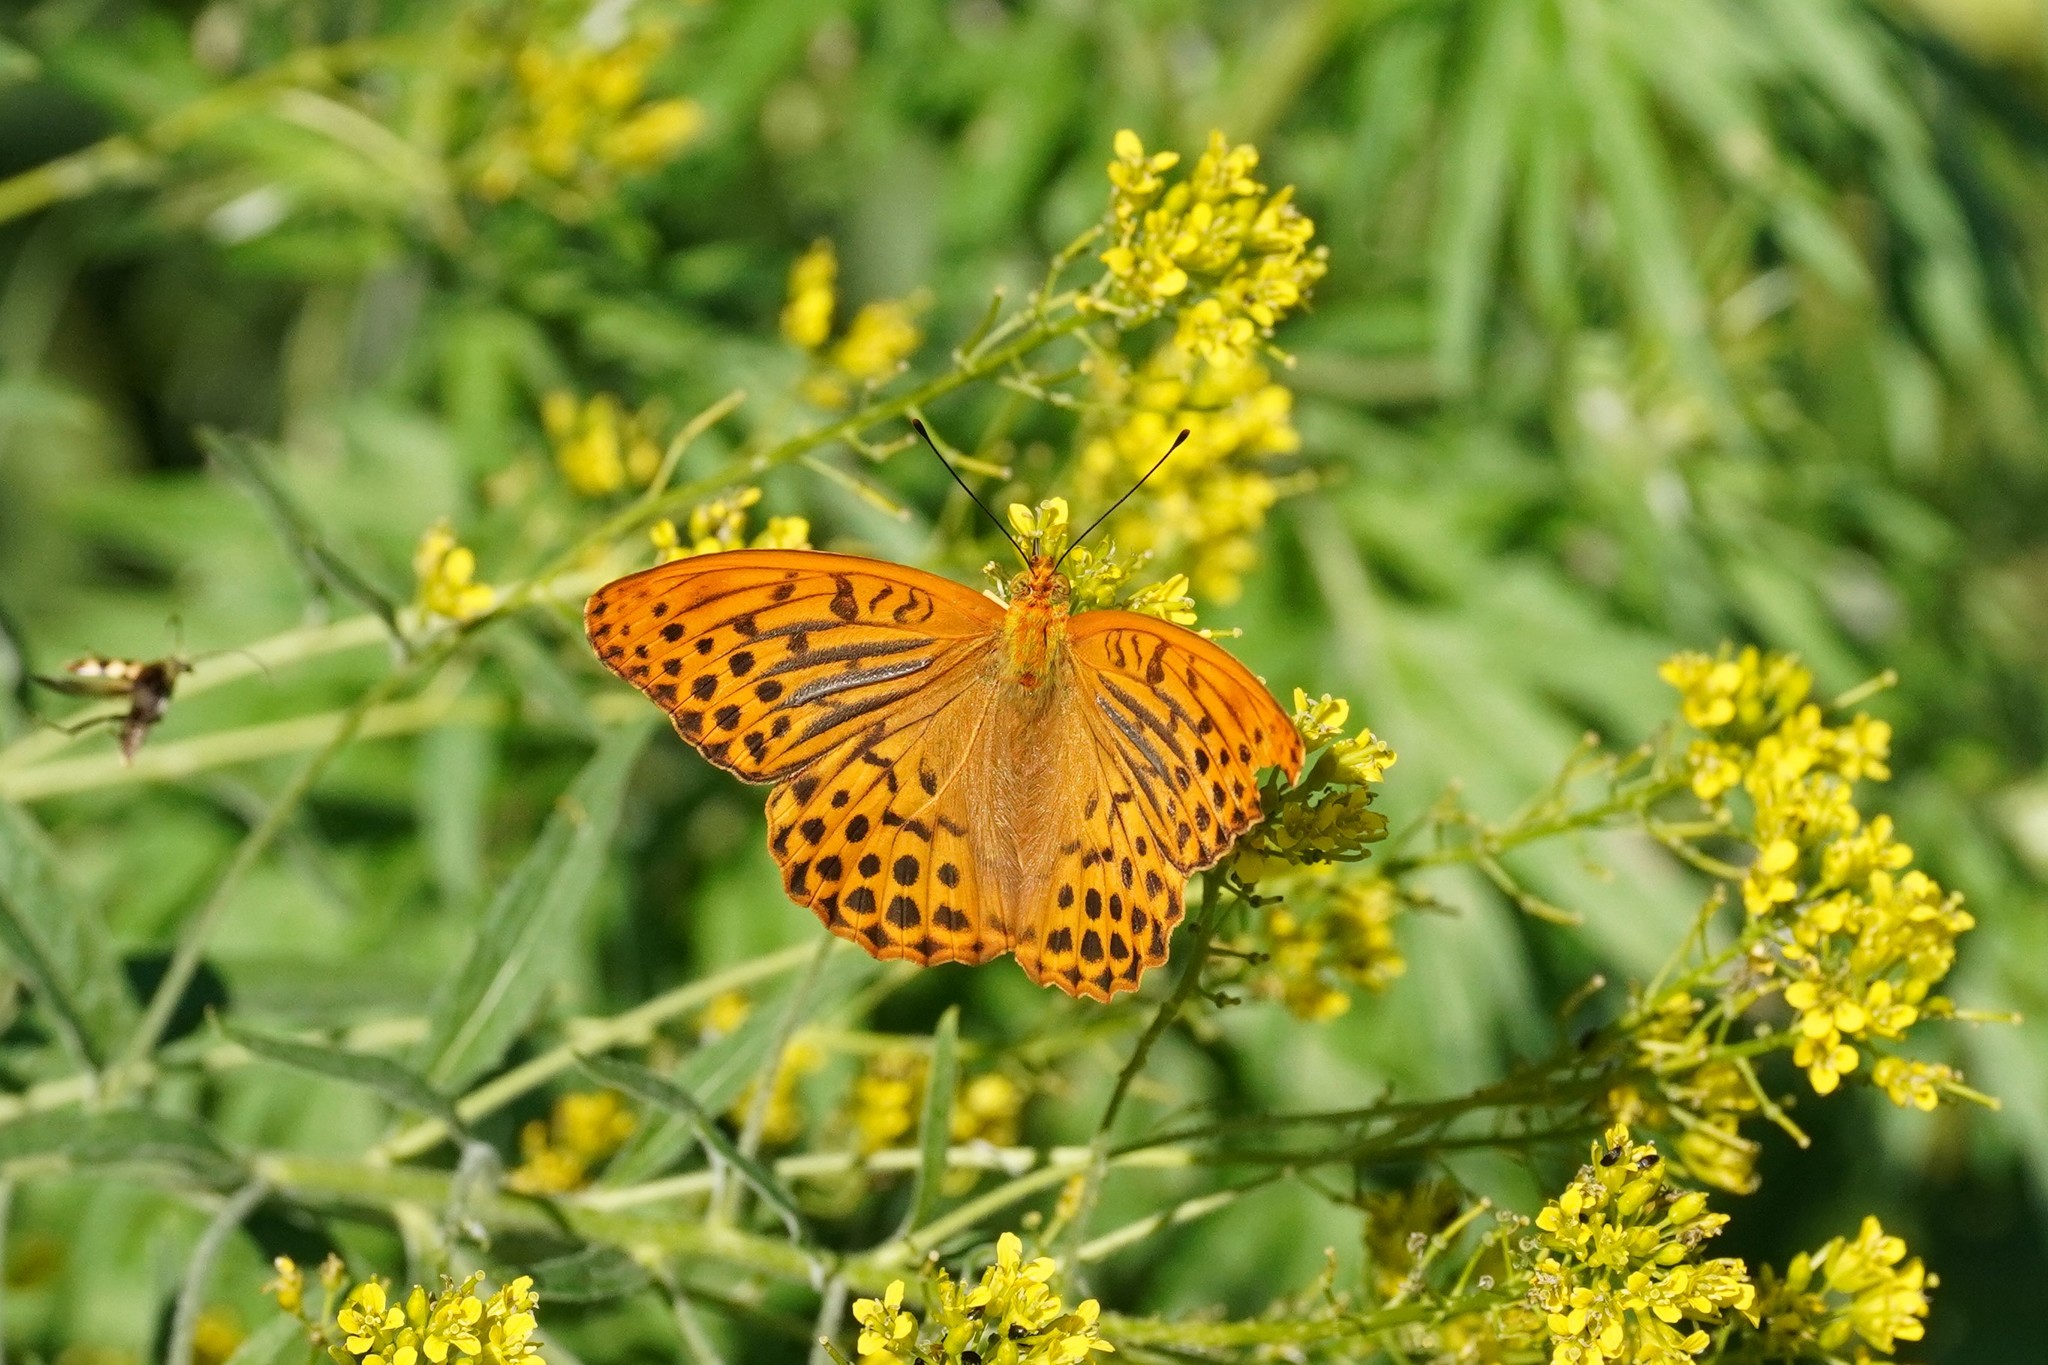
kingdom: Animalia
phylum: Arthropoda
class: Insecta
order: Lepidoptera
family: Nymphalidae
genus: Argynnis
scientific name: Argynnis paphia
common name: Silver-washed fritillary
